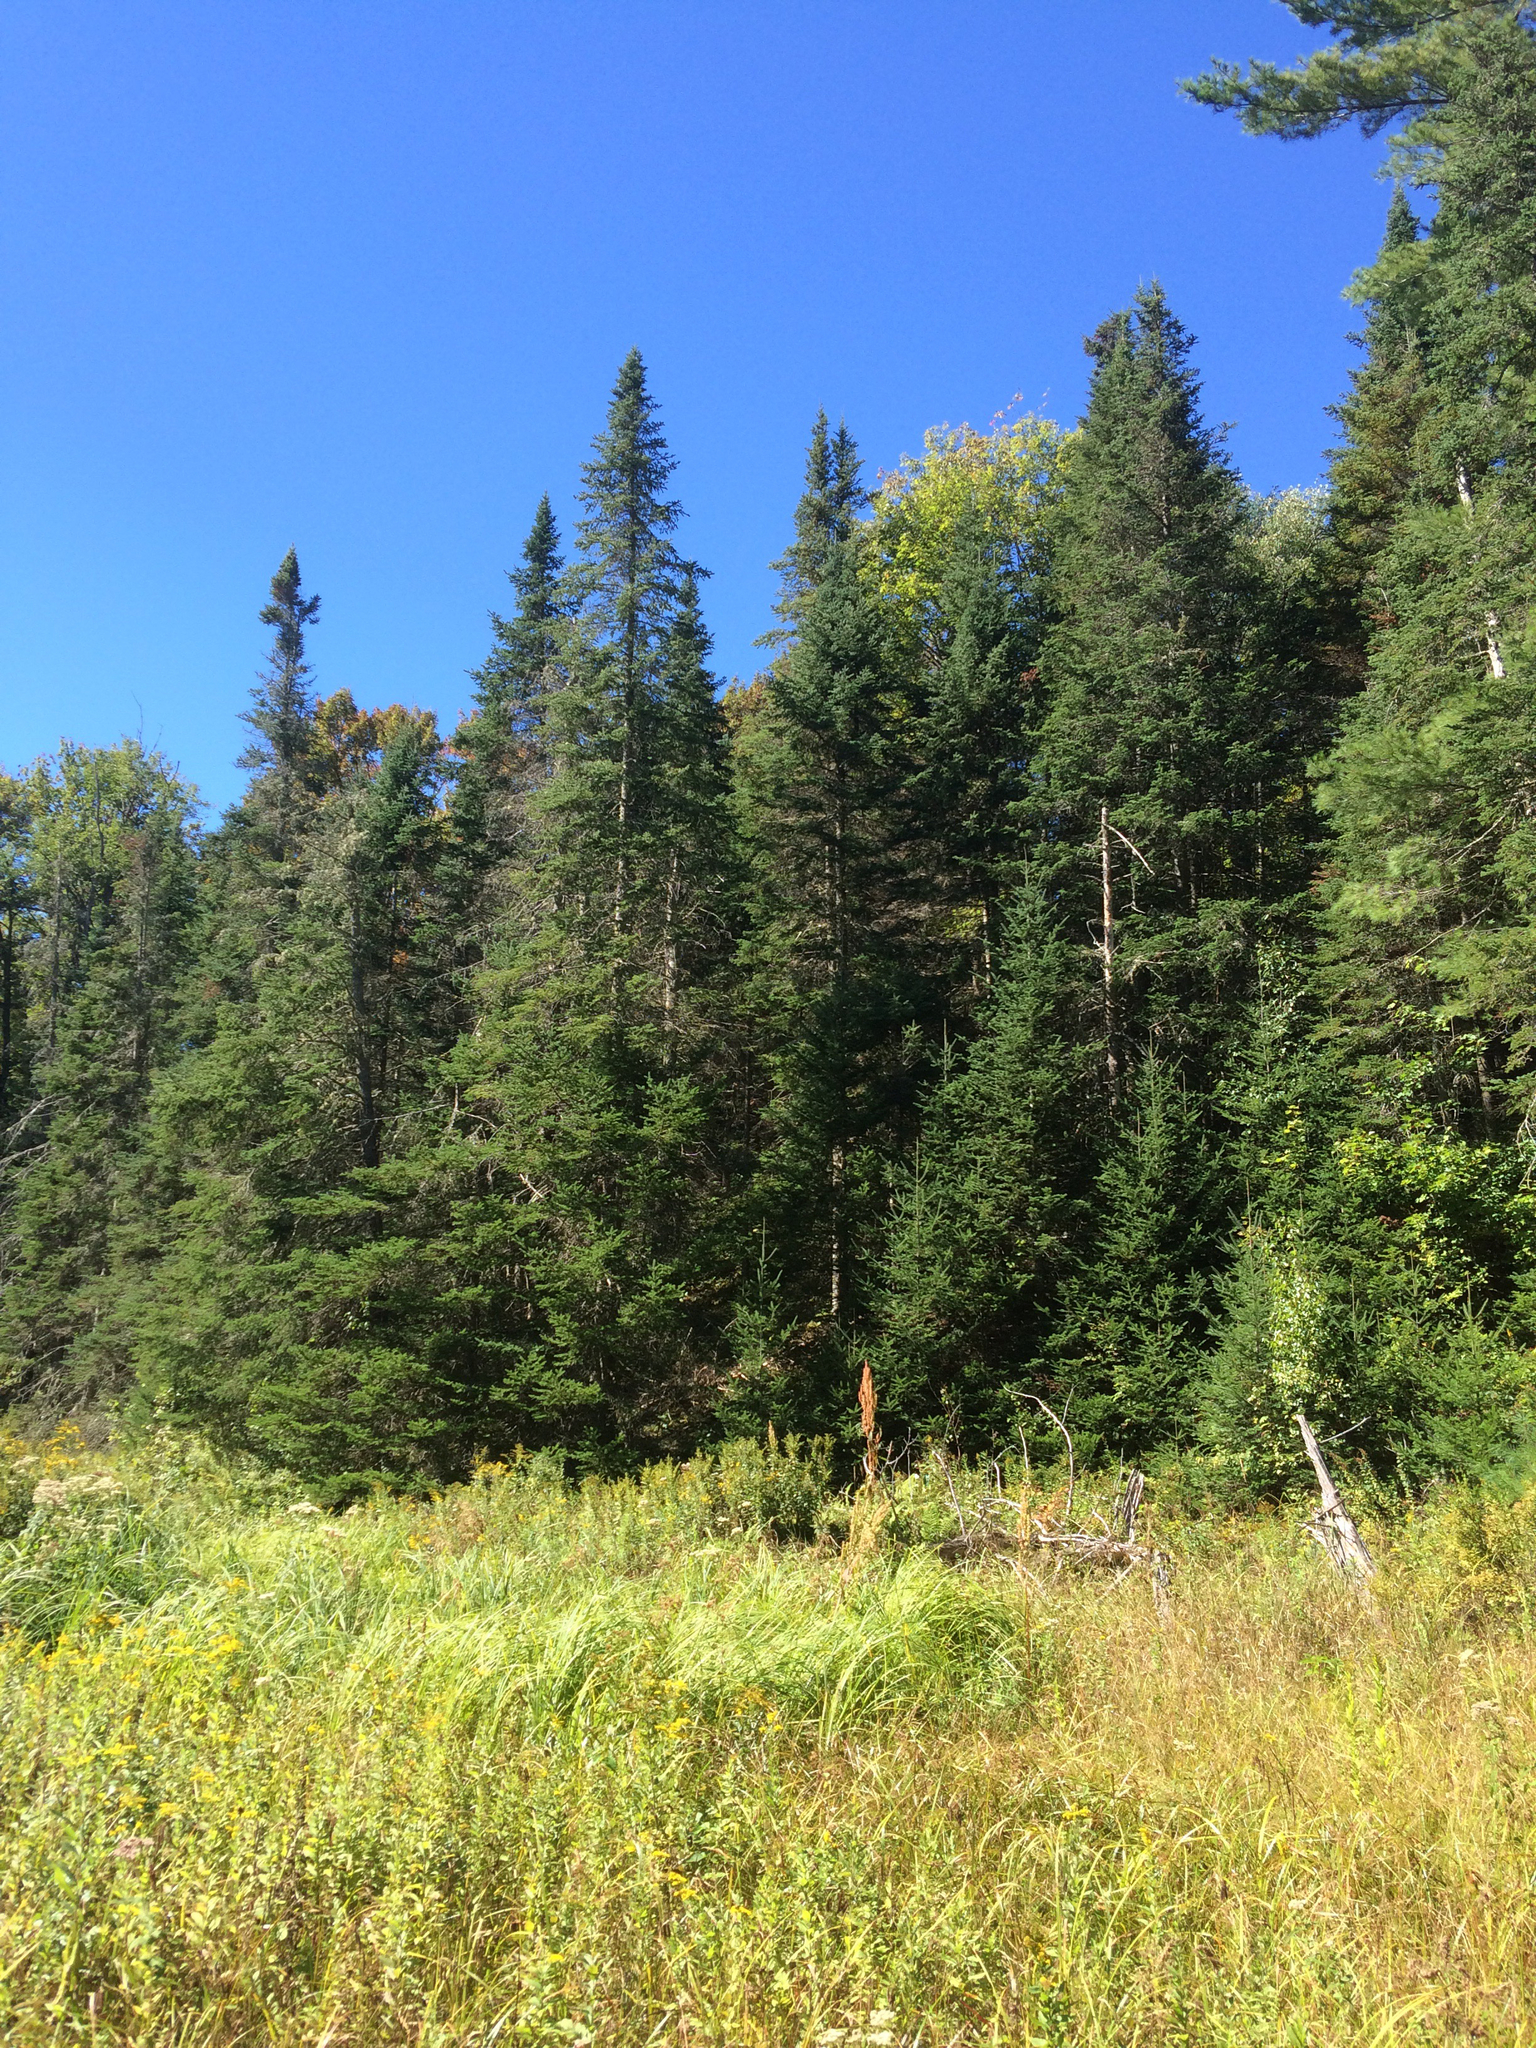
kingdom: Plantae
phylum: Tracheophyta
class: Pinopsida
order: Pinales
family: Pinaceae
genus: Abies
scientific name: Abies balsamea
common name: Balsam fir
